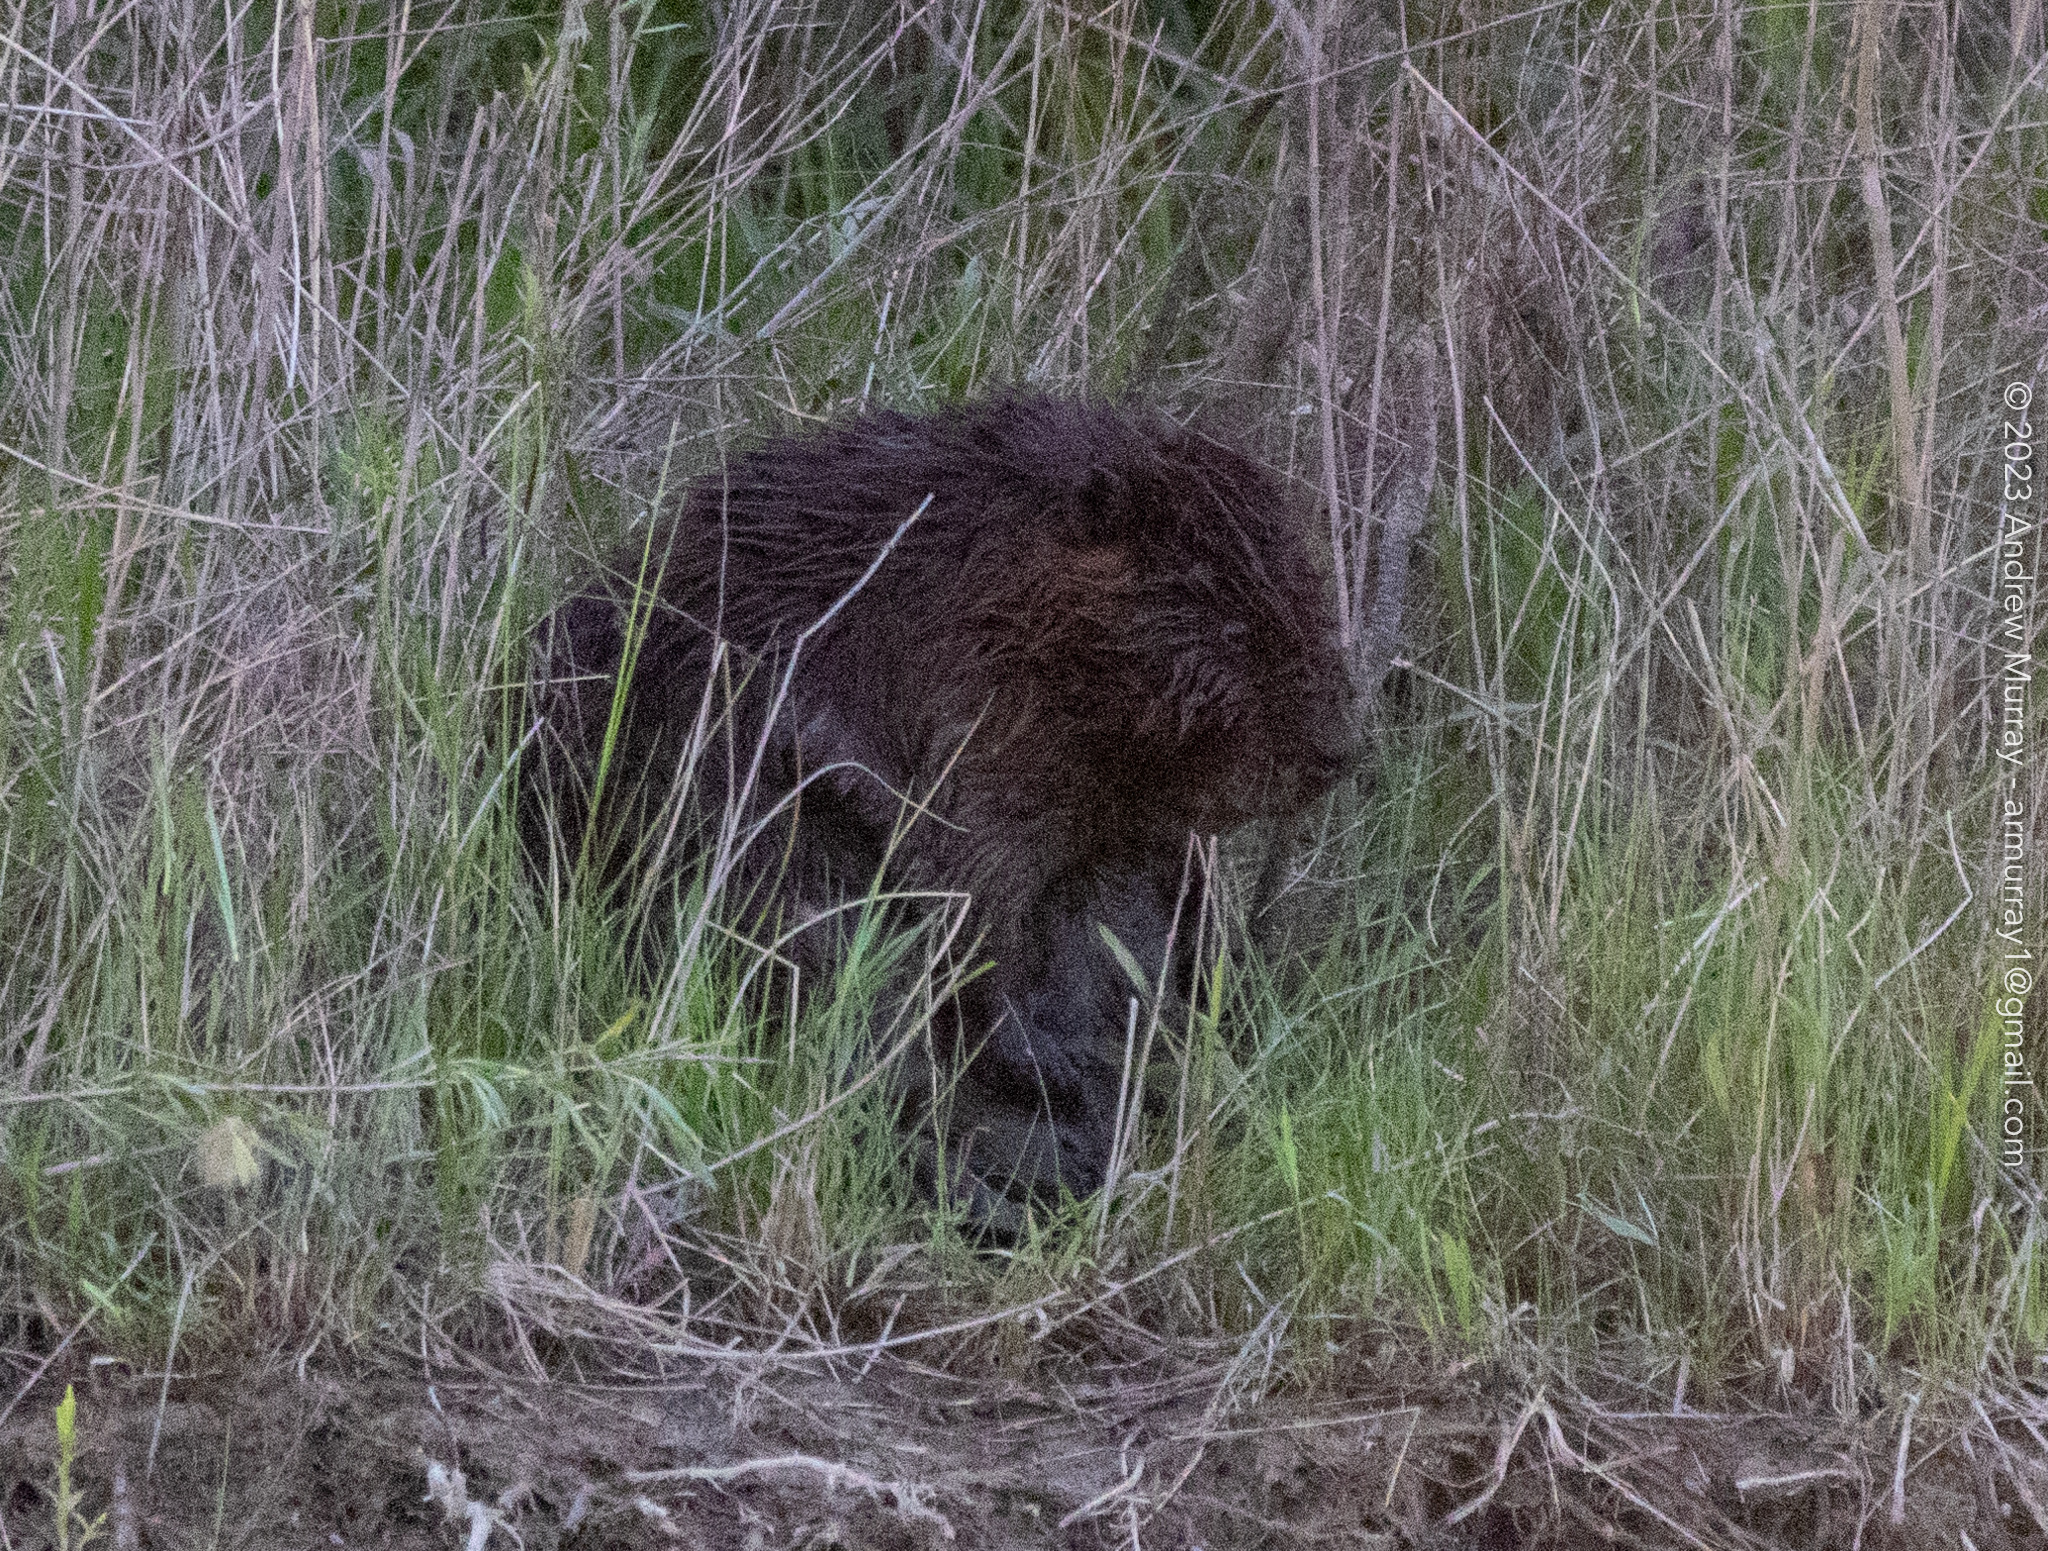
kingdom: Animalia
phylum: Chordata
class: Mammalia
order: Rodentia
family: Castoridae
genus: Castor
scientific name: Castor canadensis
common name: American beaver
